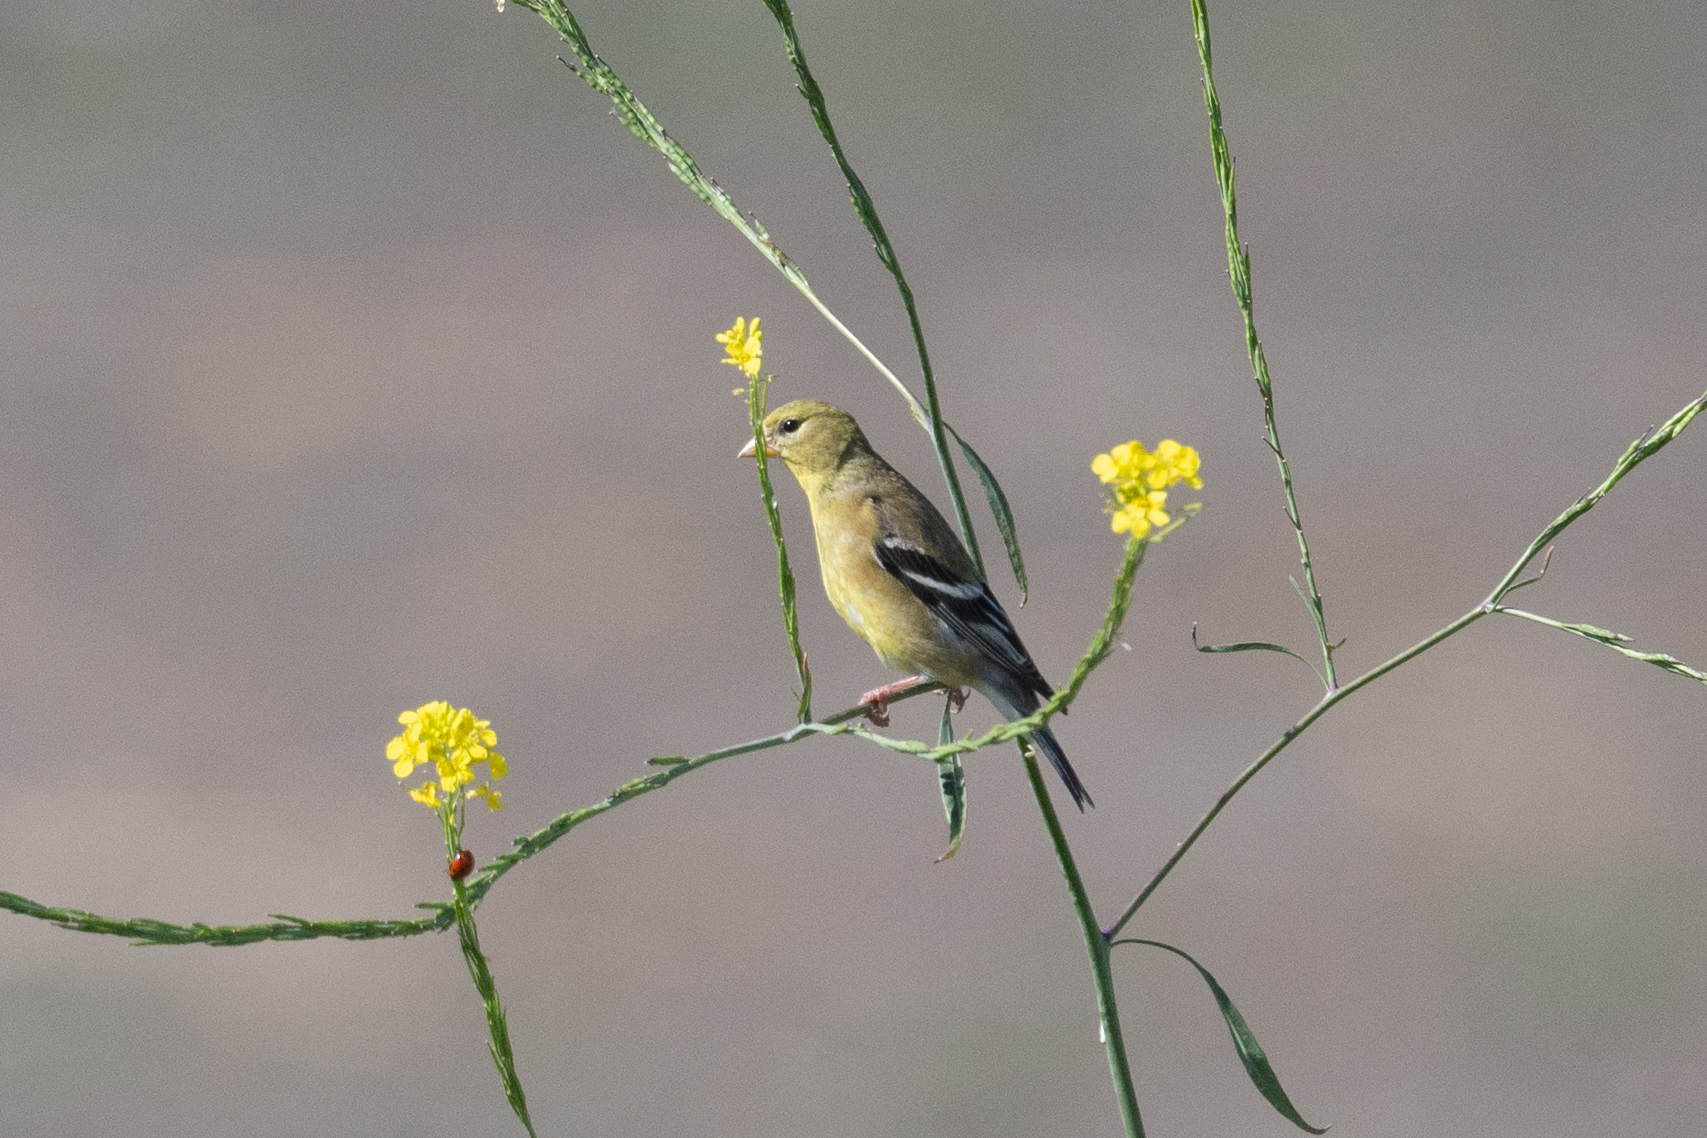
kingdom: Animalia
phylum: Chordata
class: Aves
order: Passeriformes
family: Fringillidae
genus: Spinus
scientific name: Spinus tristis
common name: American goldfinch
